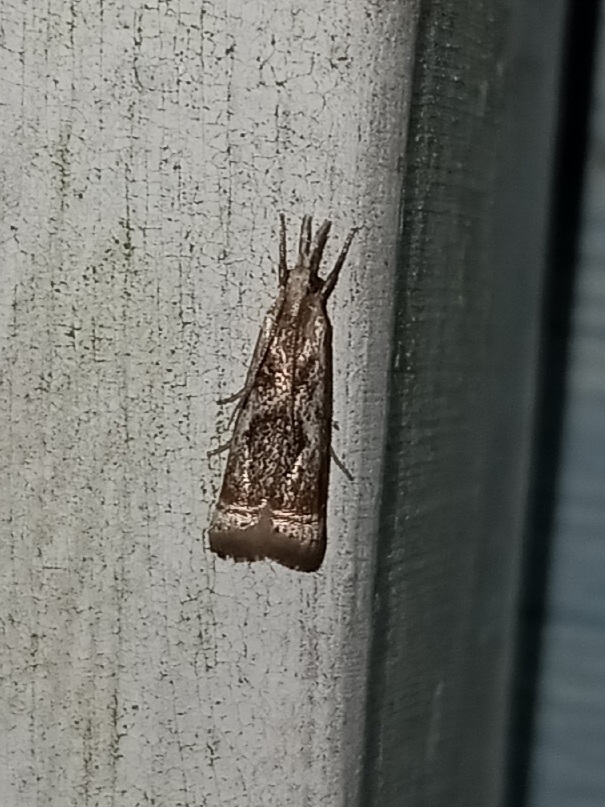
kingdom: Animalia
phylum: Arthropoda
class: Insecta
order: Lepidoptera
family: Crambidae
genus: Microcrambus
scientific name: Microcrambus elegans
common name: Elegant grass-veneer
